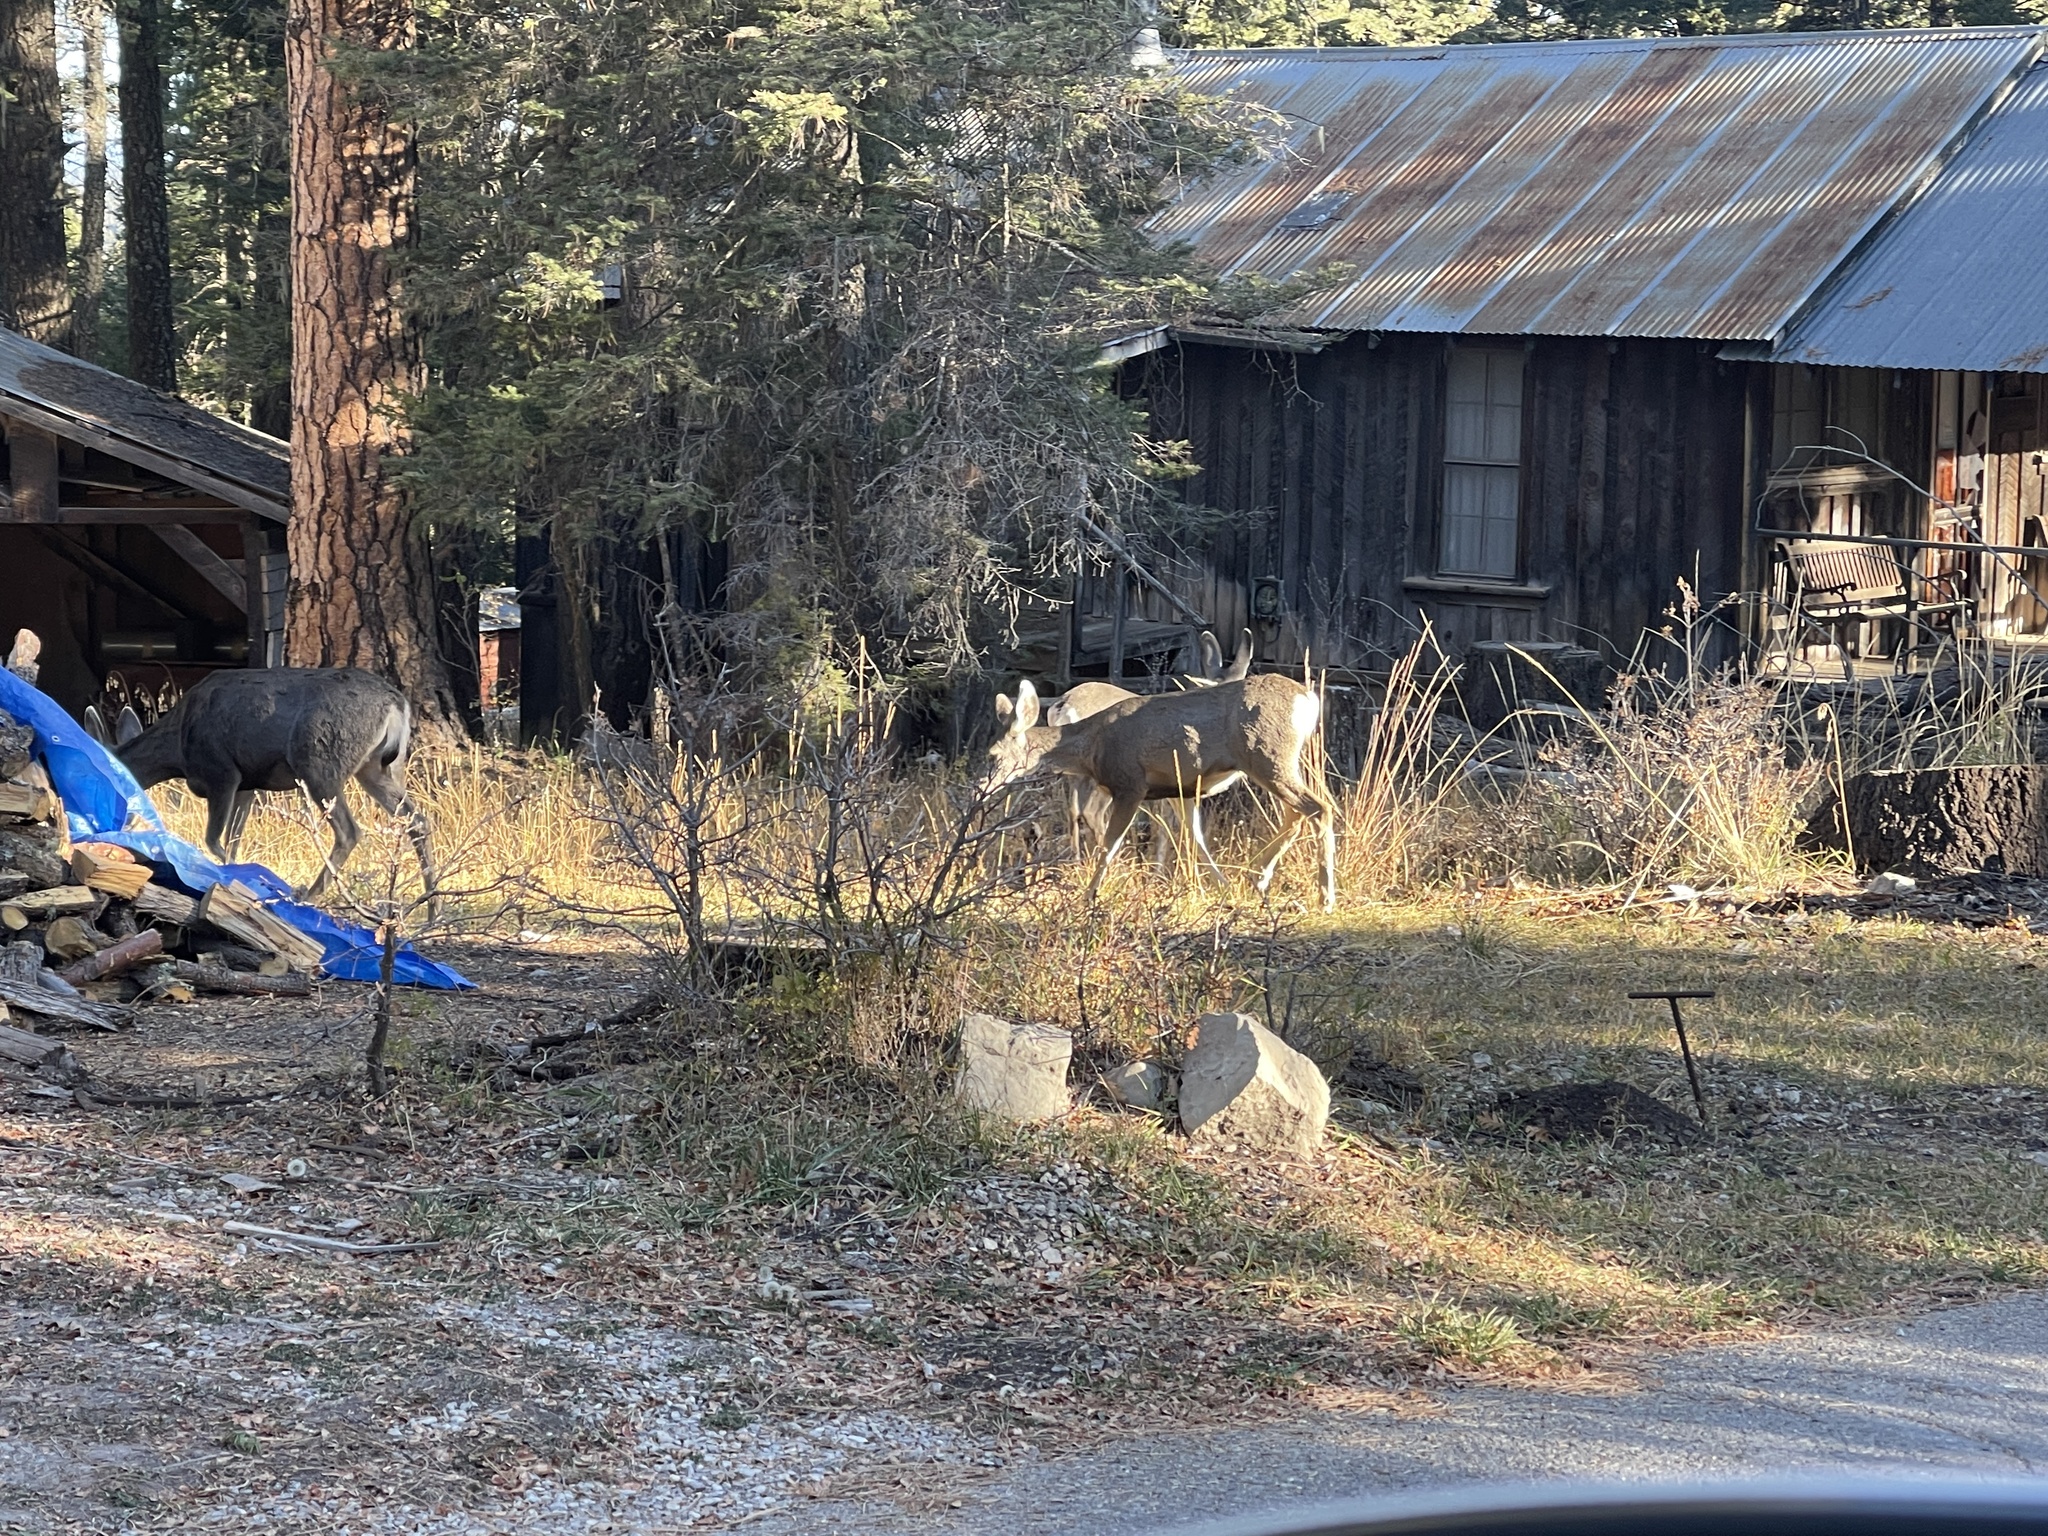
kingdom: Animalia
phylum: Chordata
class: Mammalia
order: Artiodactyla
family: Cervidae
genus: Odocoileus
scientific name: Odocoileus hemionus
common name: Mule deer
